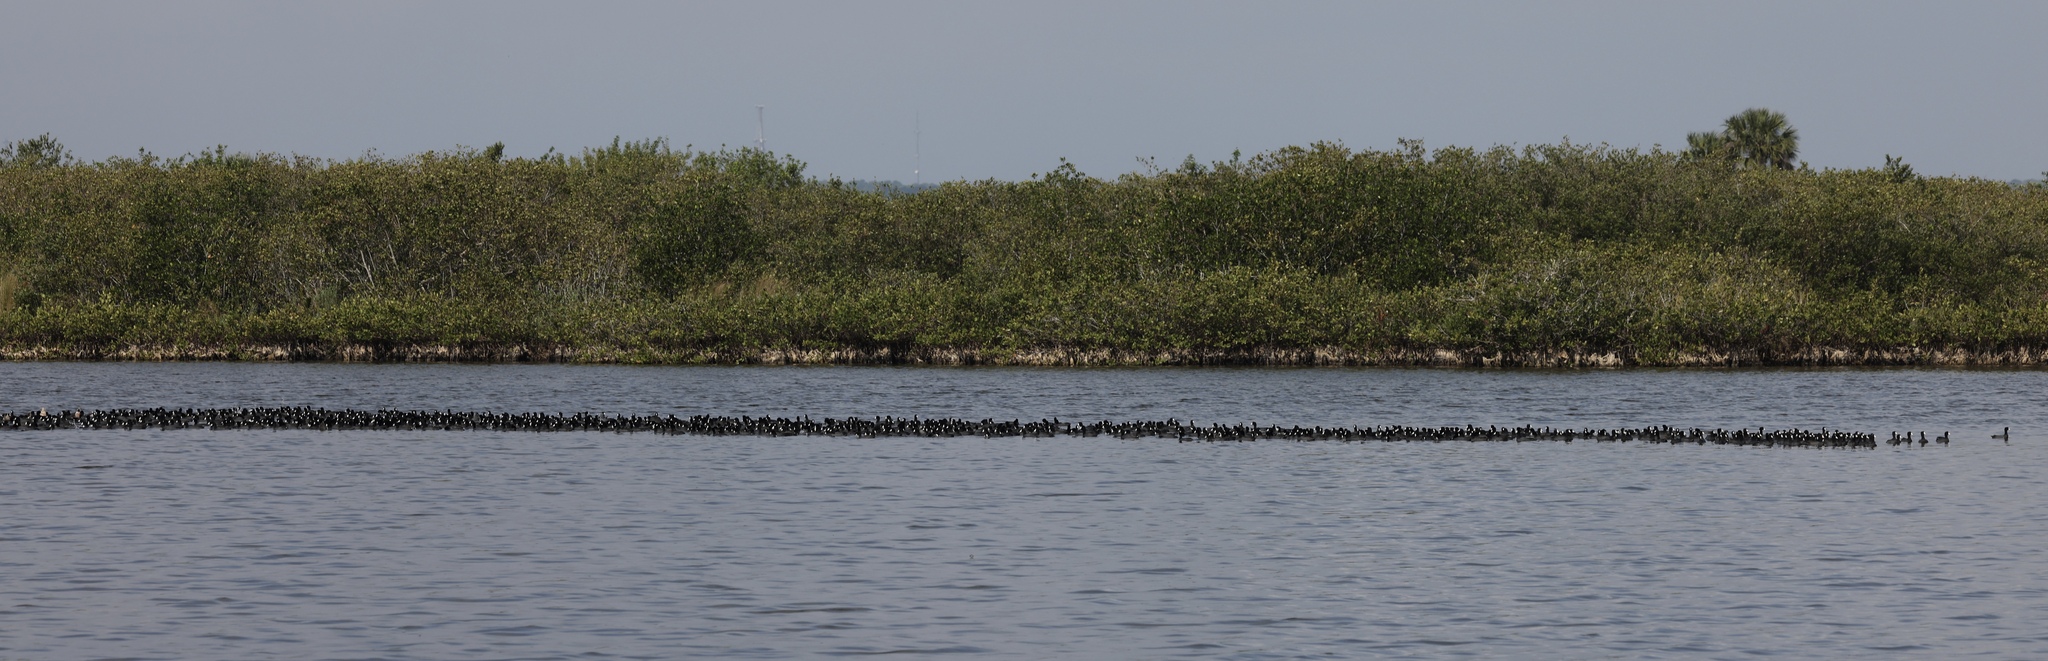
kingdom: Animalia
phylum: Chordata
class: Aves
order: Gruiformes
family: Rallidae
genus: Fulica
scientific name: Fulica americana
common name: American coot
